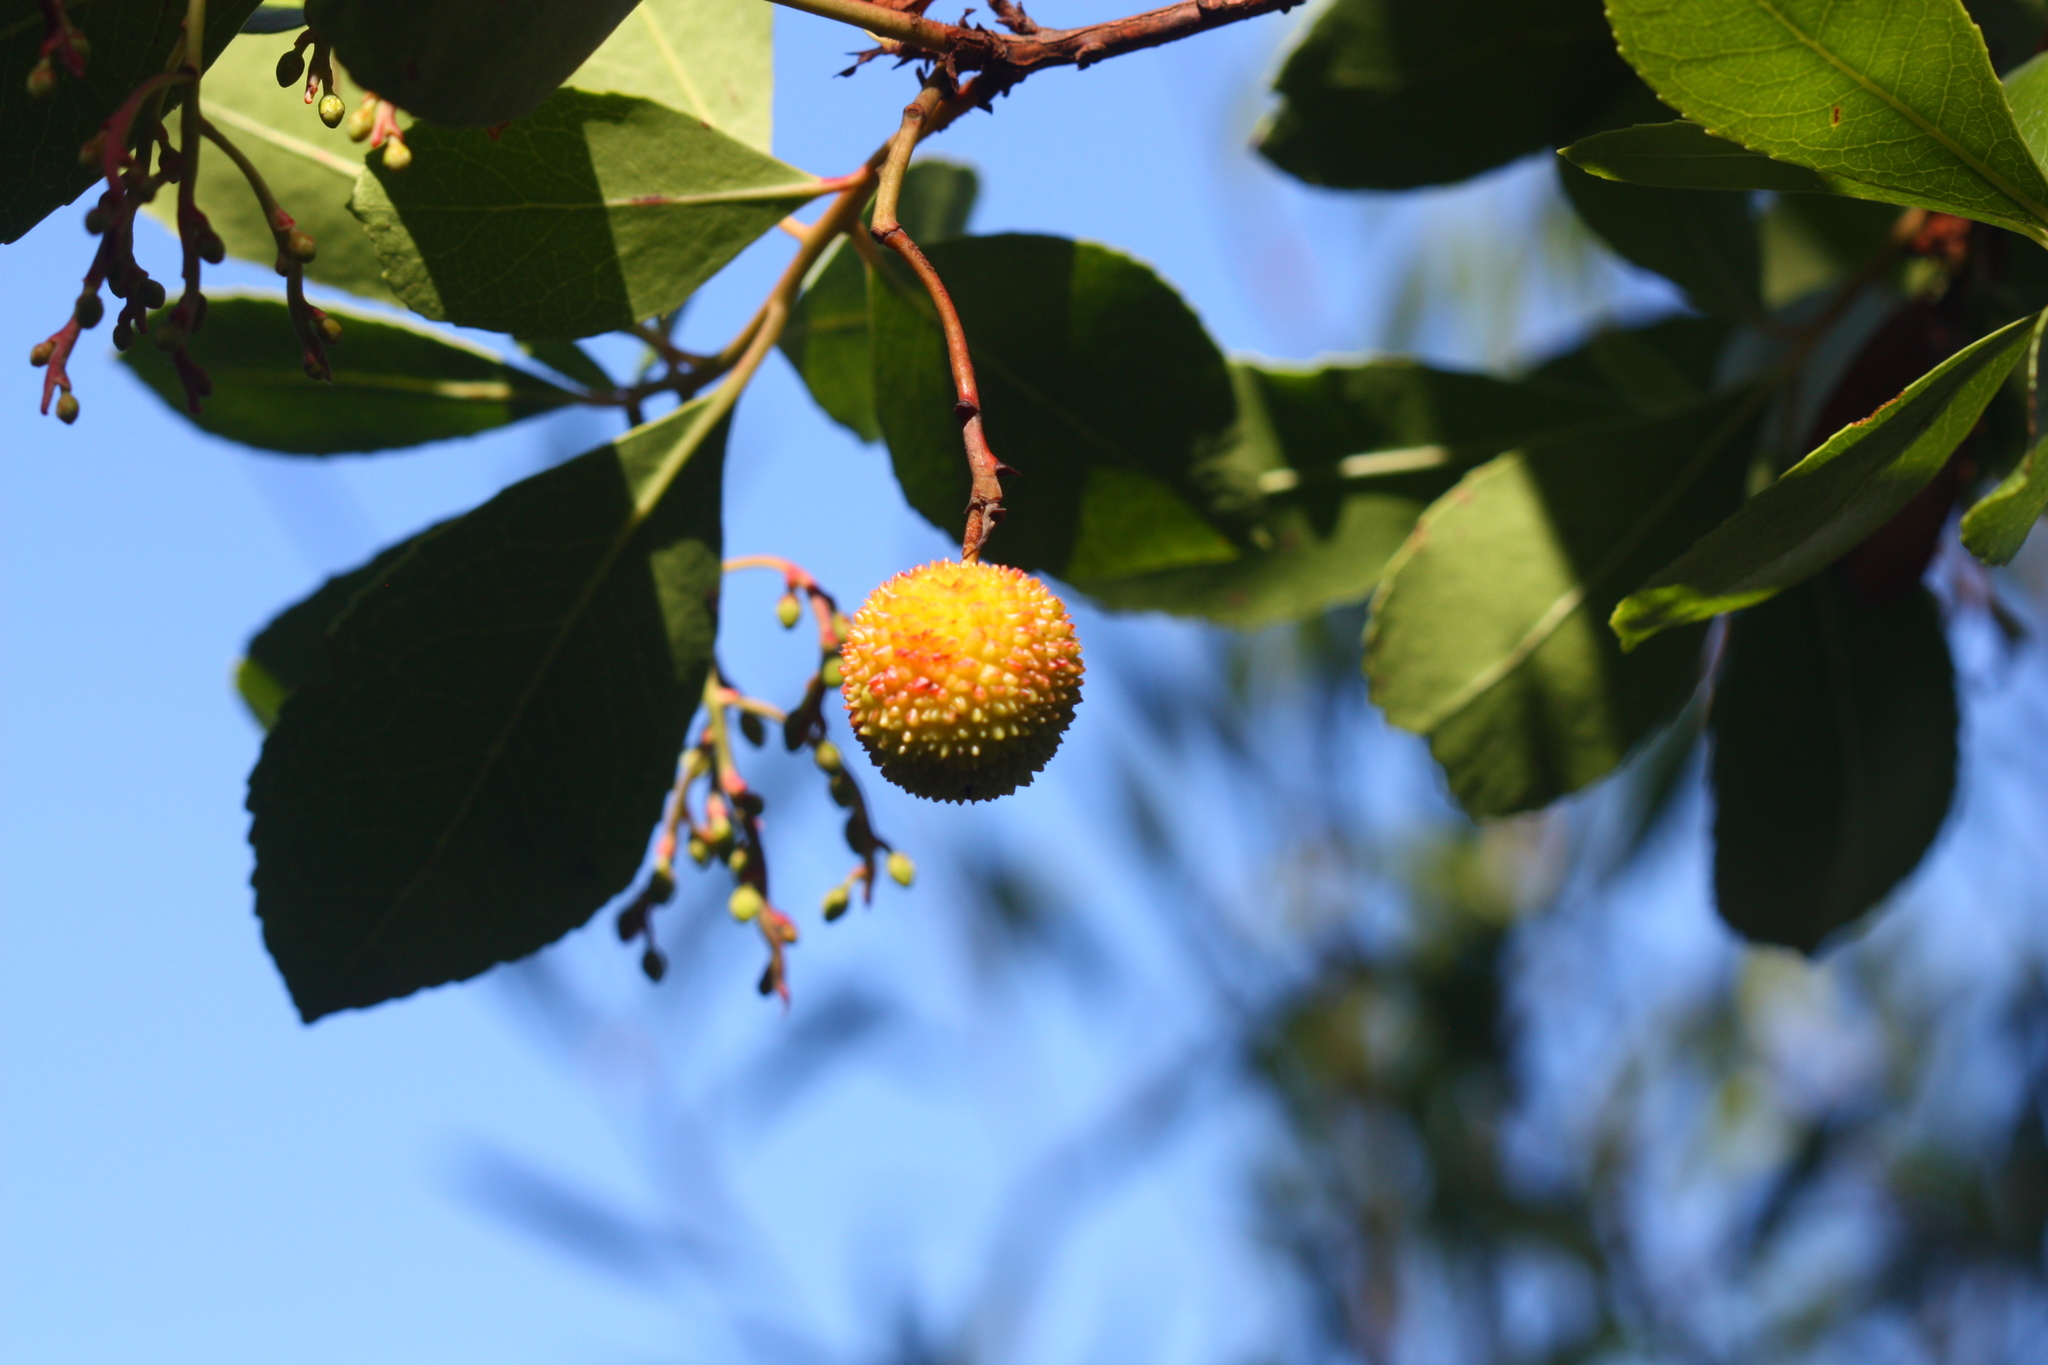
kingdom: Plantae
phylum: Tracheophyta
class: Magnoliopsida
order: Ericales
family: Ericaceae
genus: Arbutus
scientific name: Arbutus unedo
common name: Strawberry-tree
